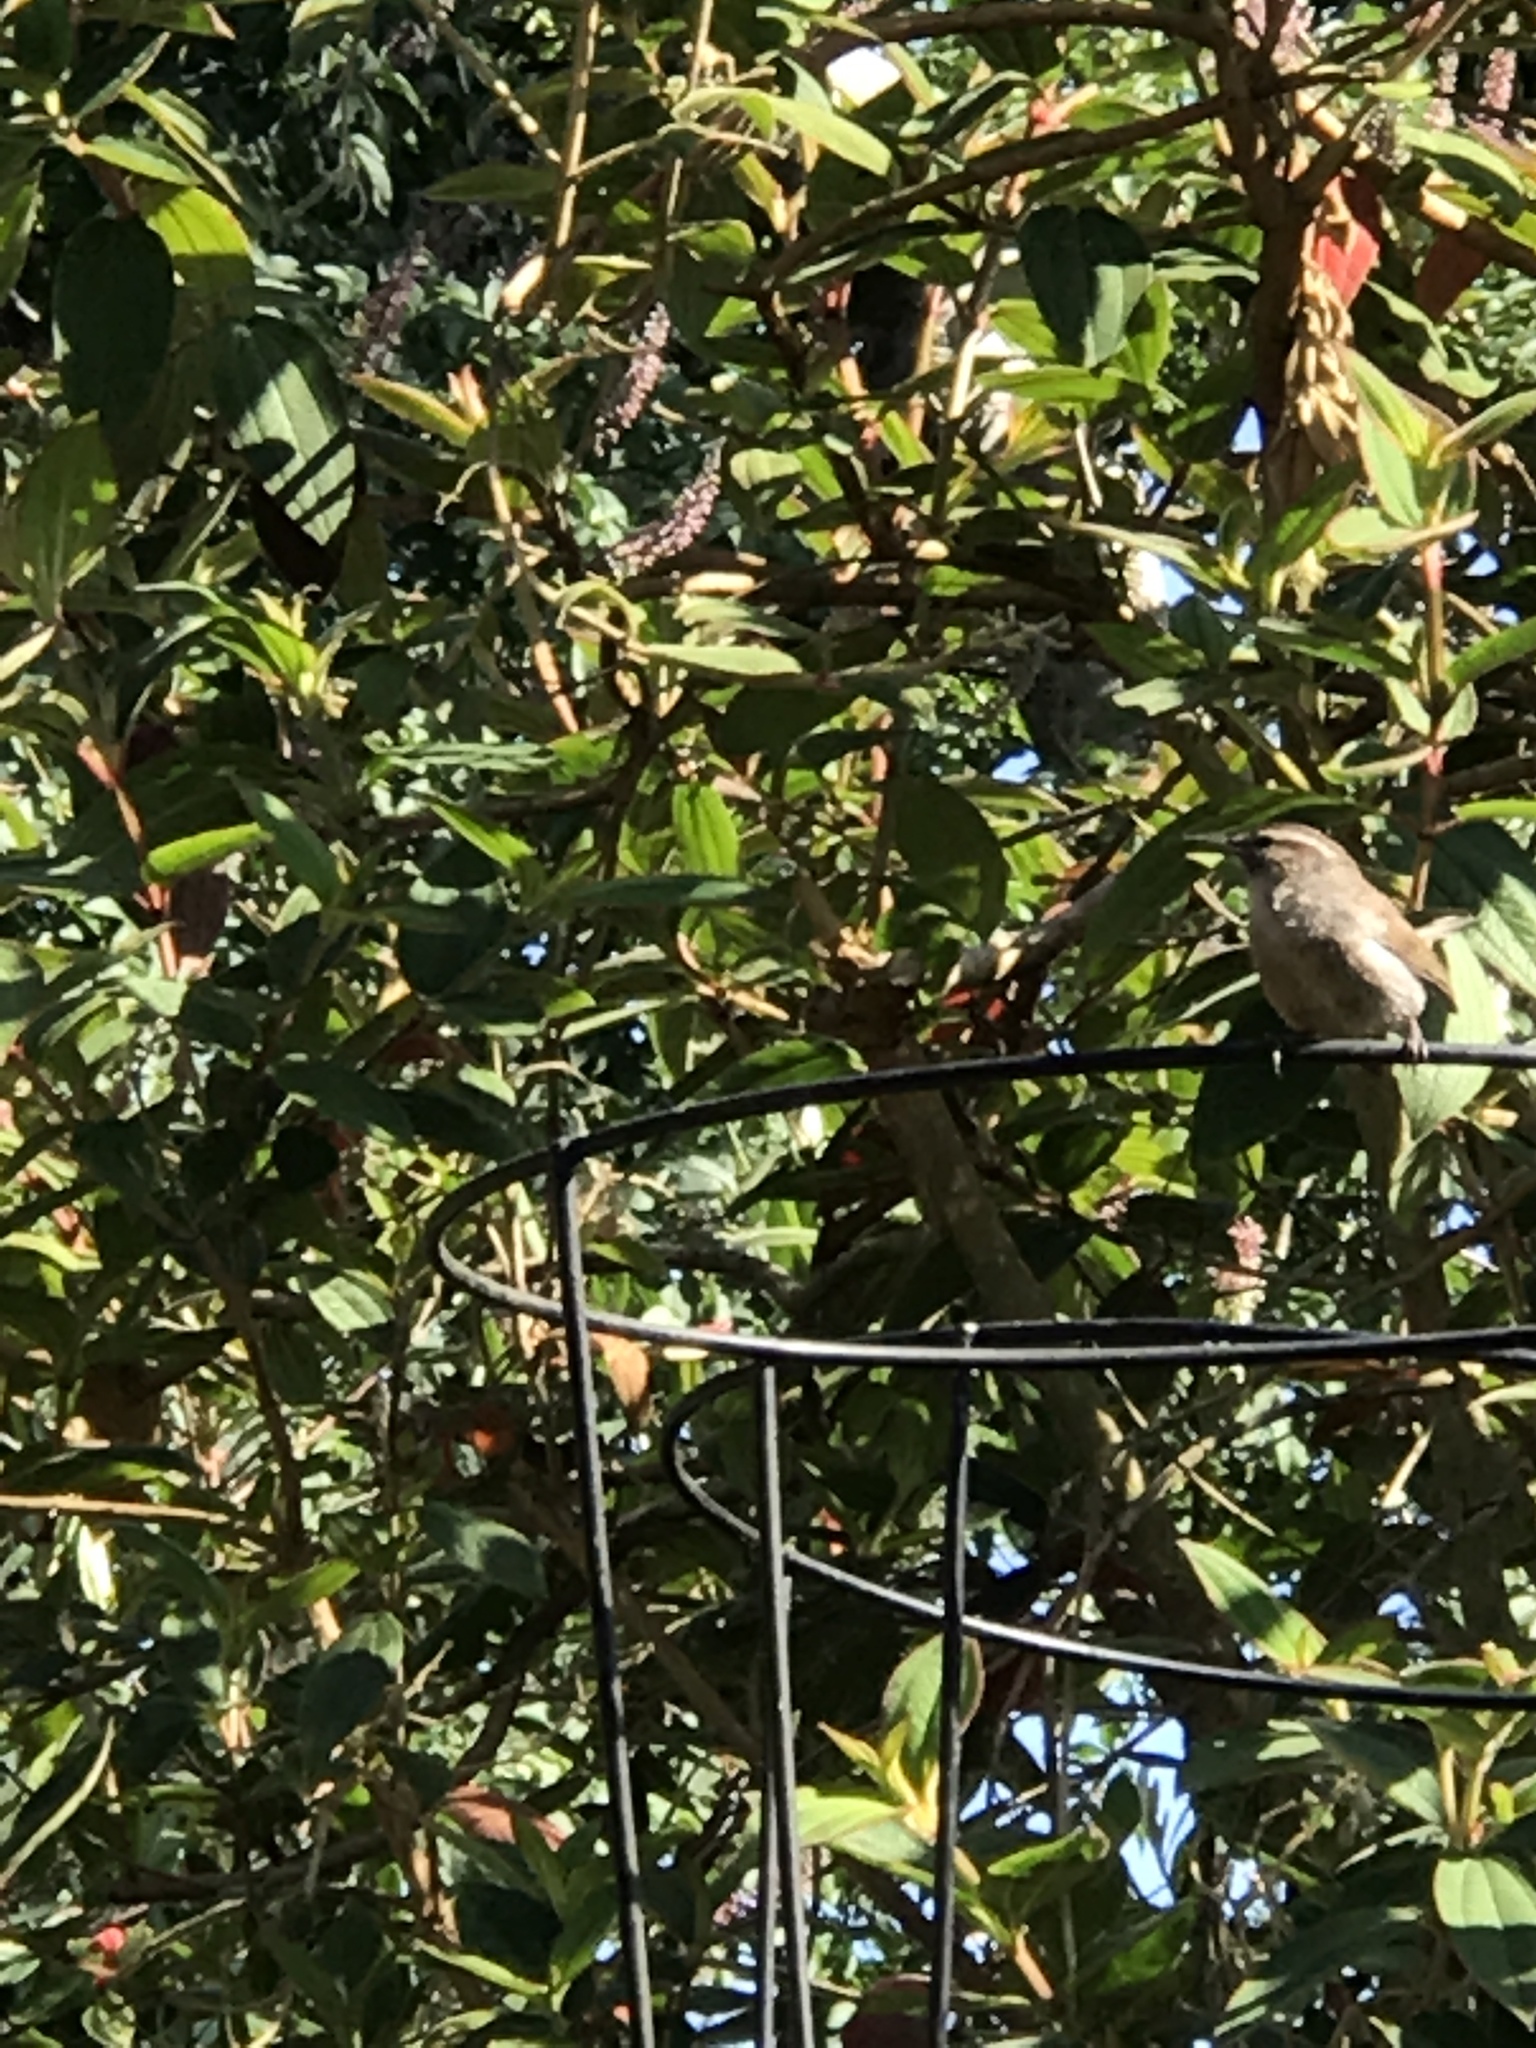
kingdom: Animalia
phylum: Chordata
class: Aves
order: Passeriformes
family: Troglodytidae
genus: Thryomanes
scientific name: Thryomanes bewickii
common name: Bewick's wren
